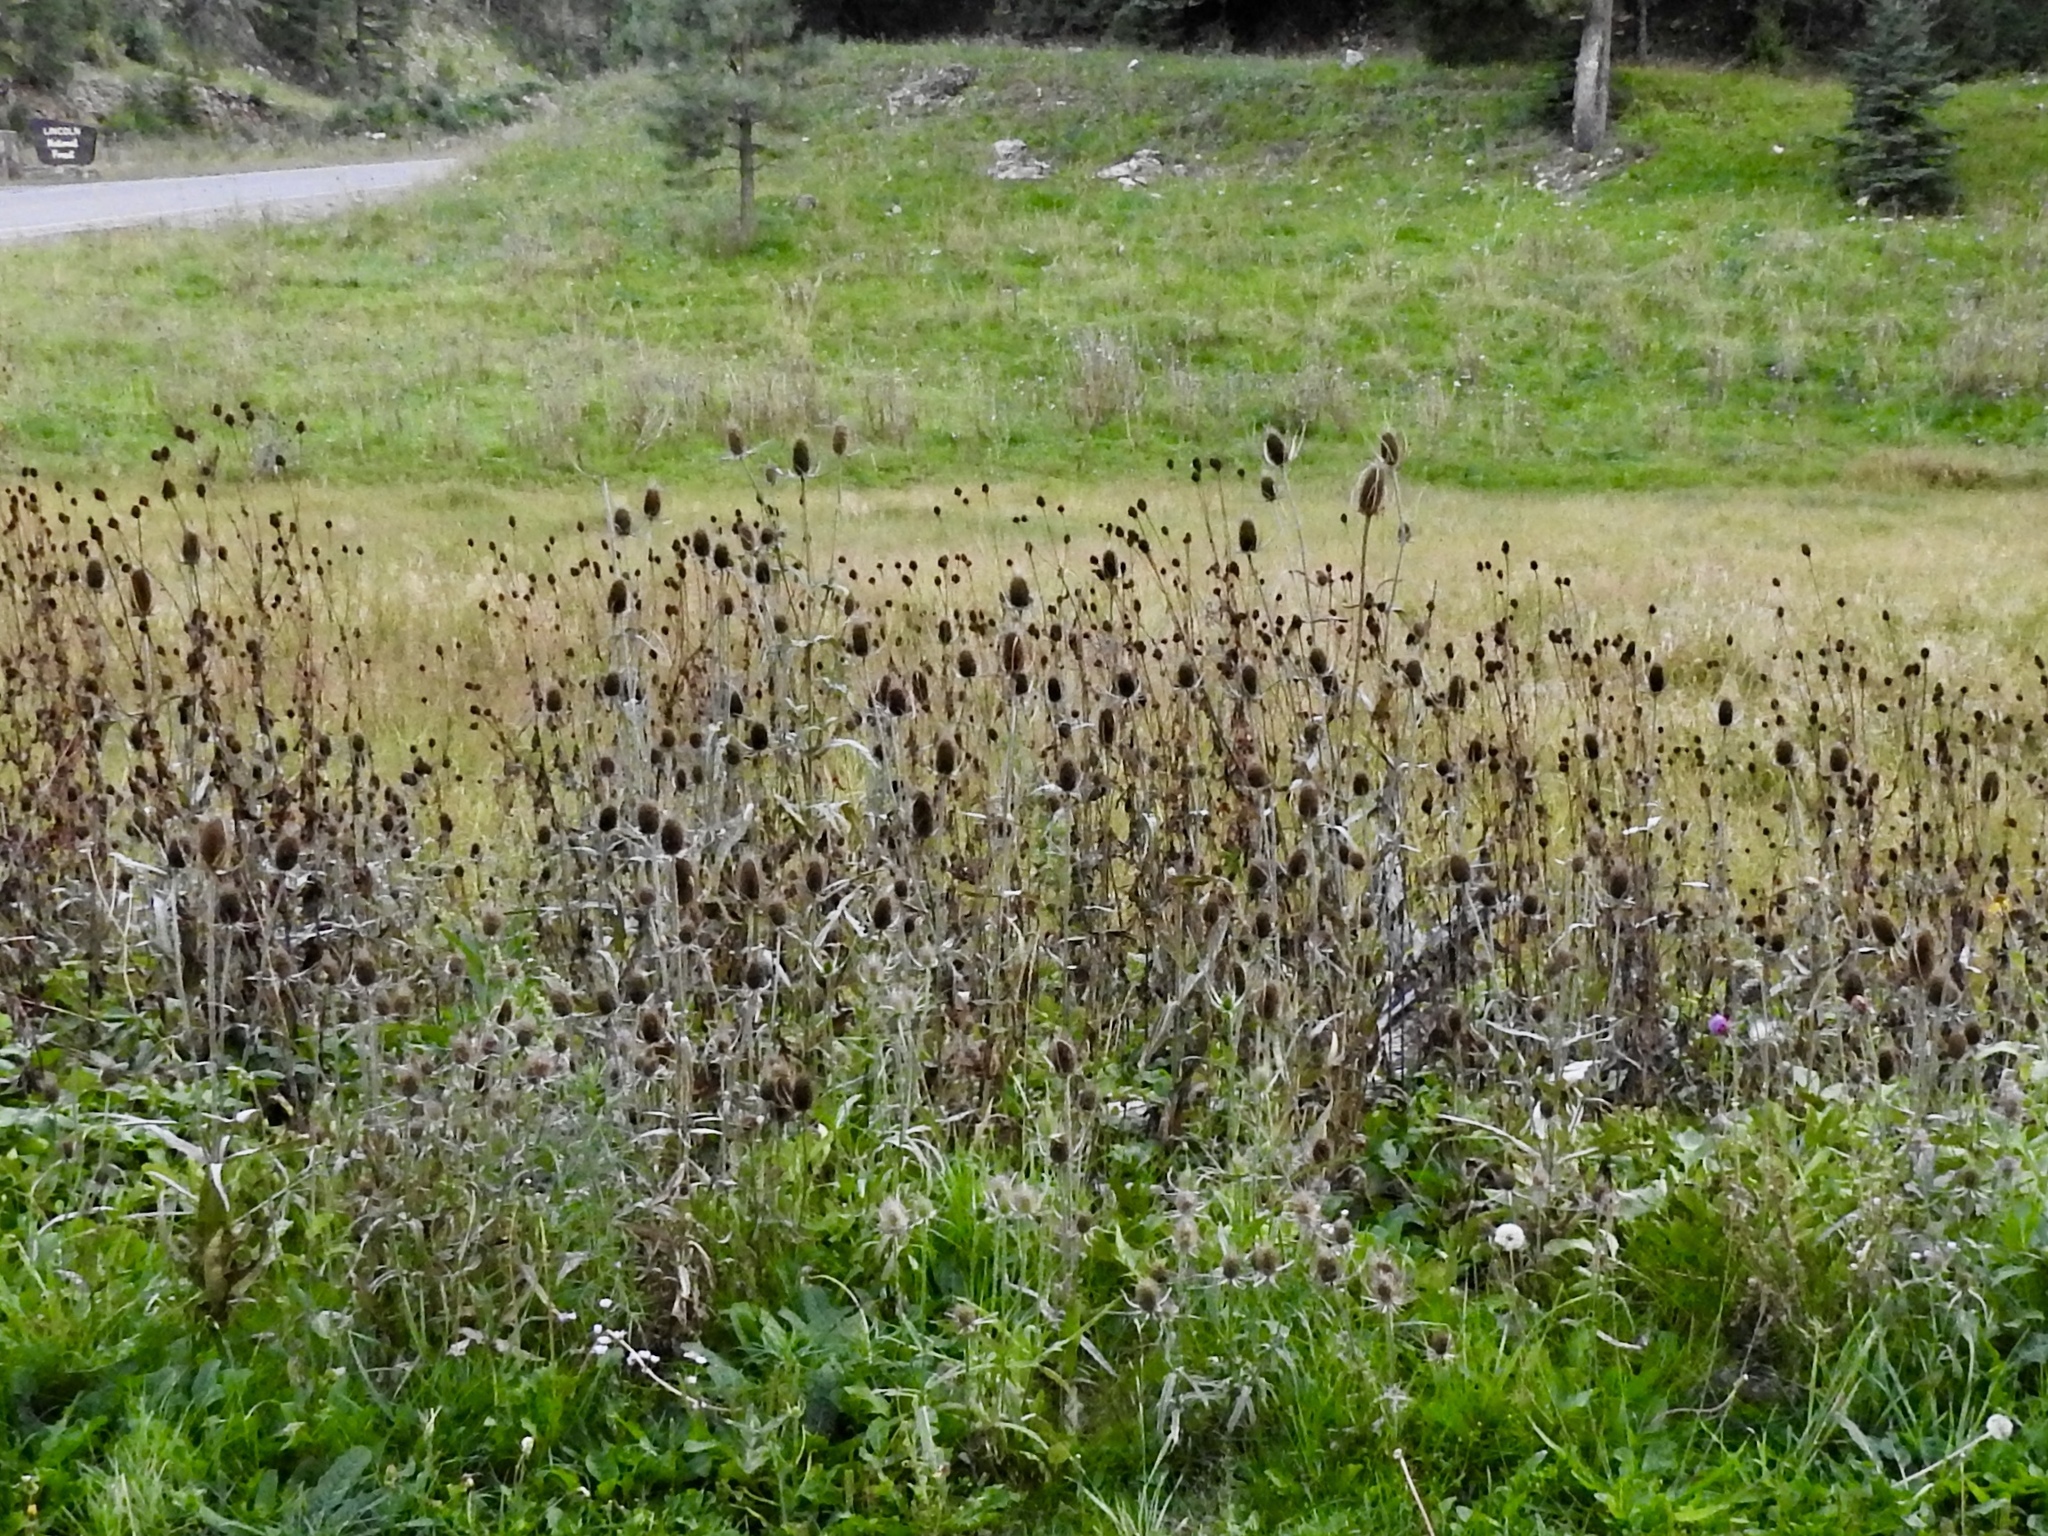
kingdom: Plantae
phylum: Tracheophyta
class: Magnoliopsida
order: Dipsacales
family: Caprifoliaceae
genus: Dipsacus
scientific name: Dipsacus fullonum
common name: Teasel
